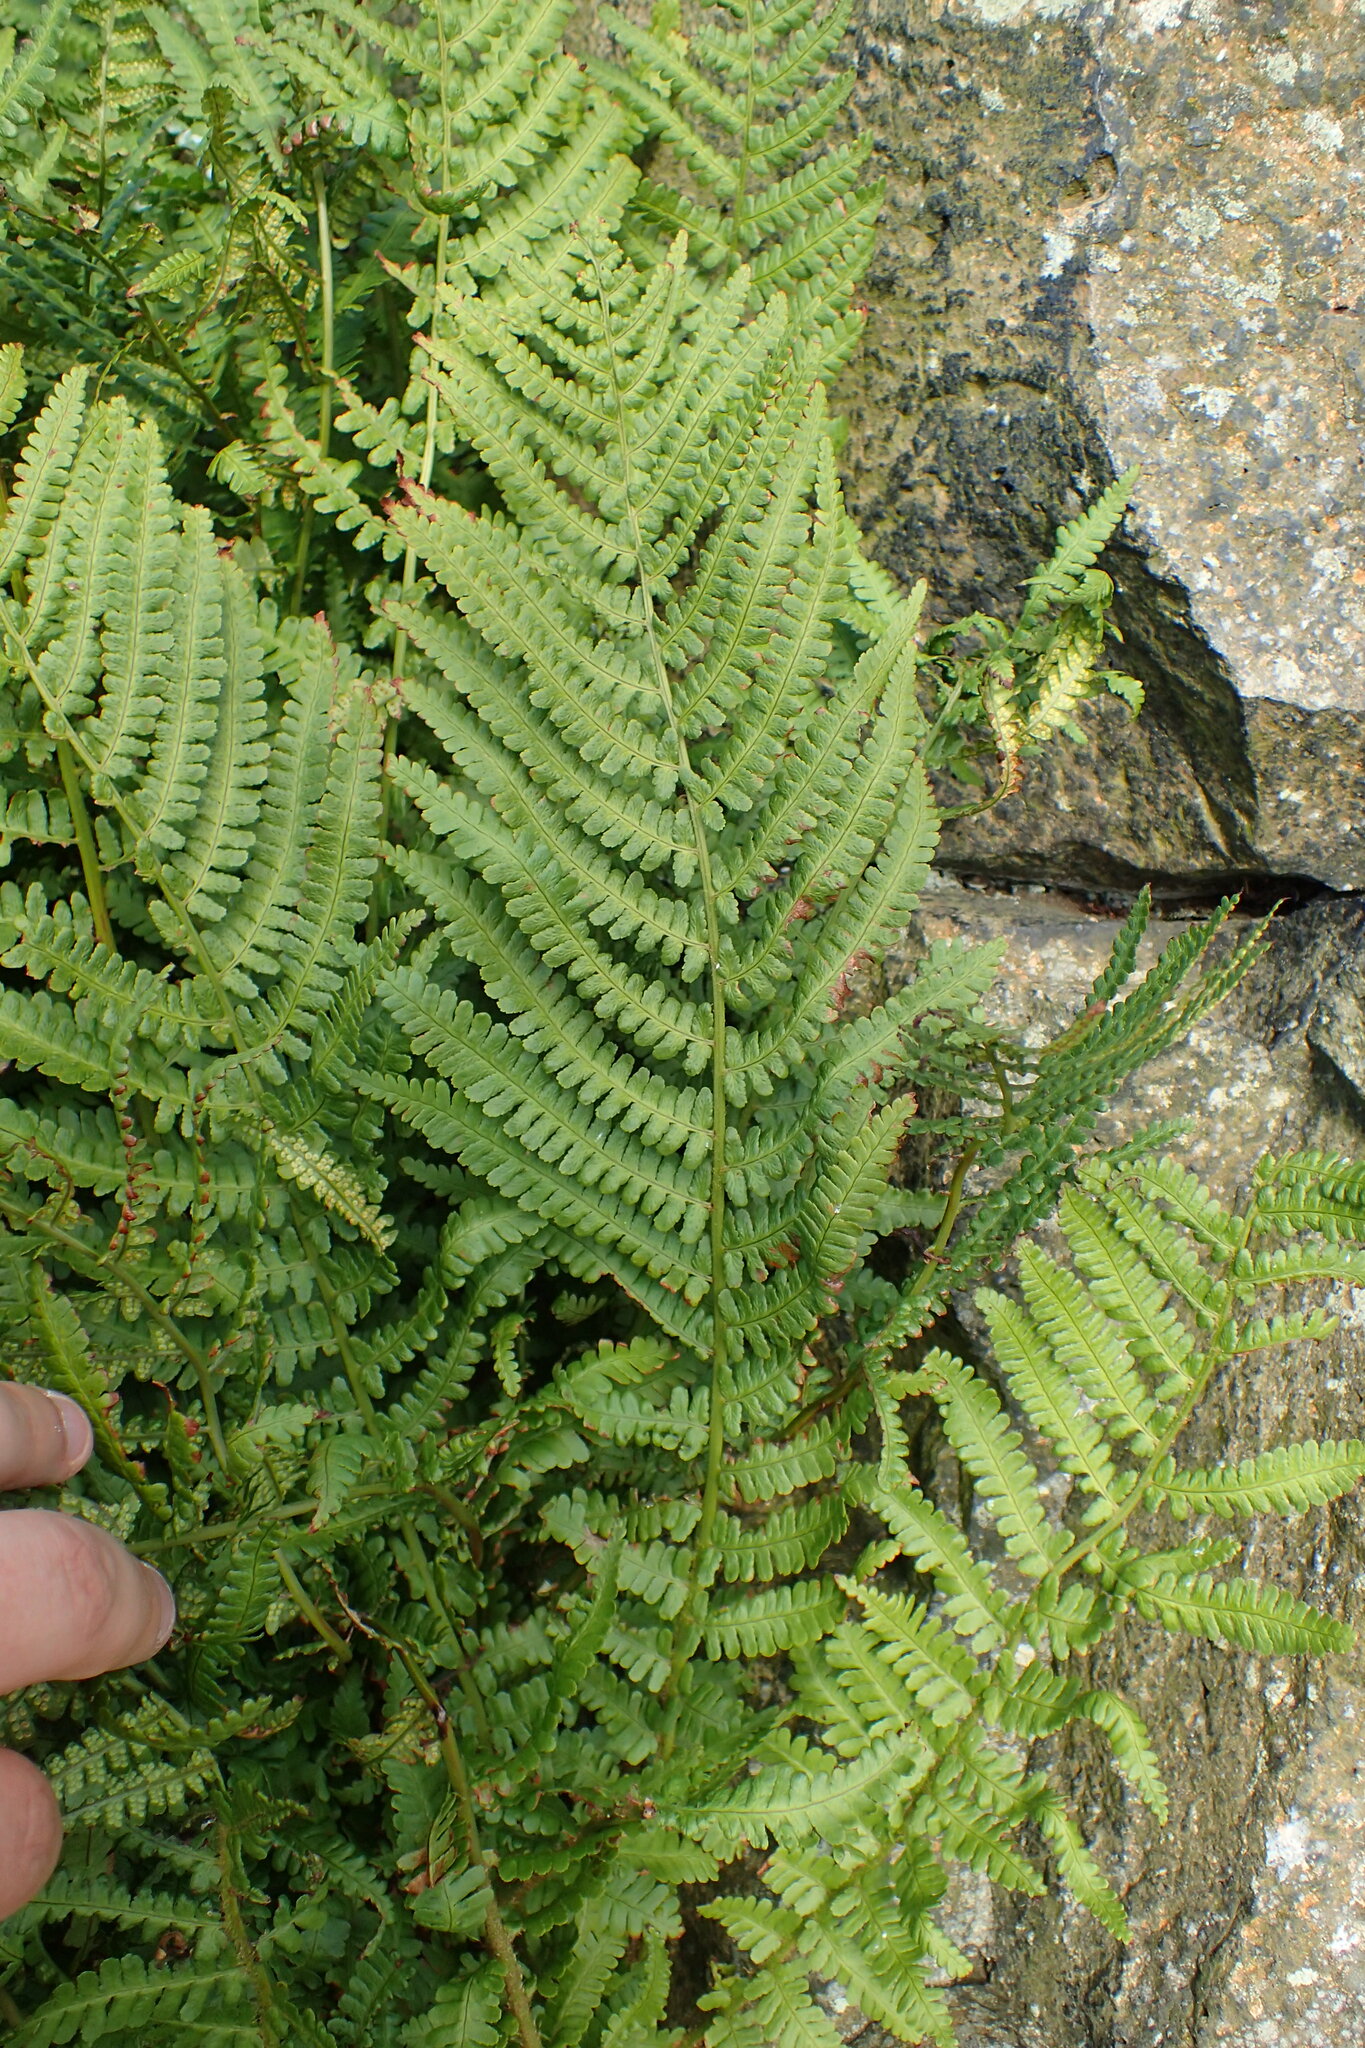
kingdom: Plantae
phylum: Tracheophyta
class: Polypodiopsida
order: Polypodiales
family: Dryopteridaceae
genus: Dryopteris
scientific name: Dryopteris filix-mas
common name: Male fern
